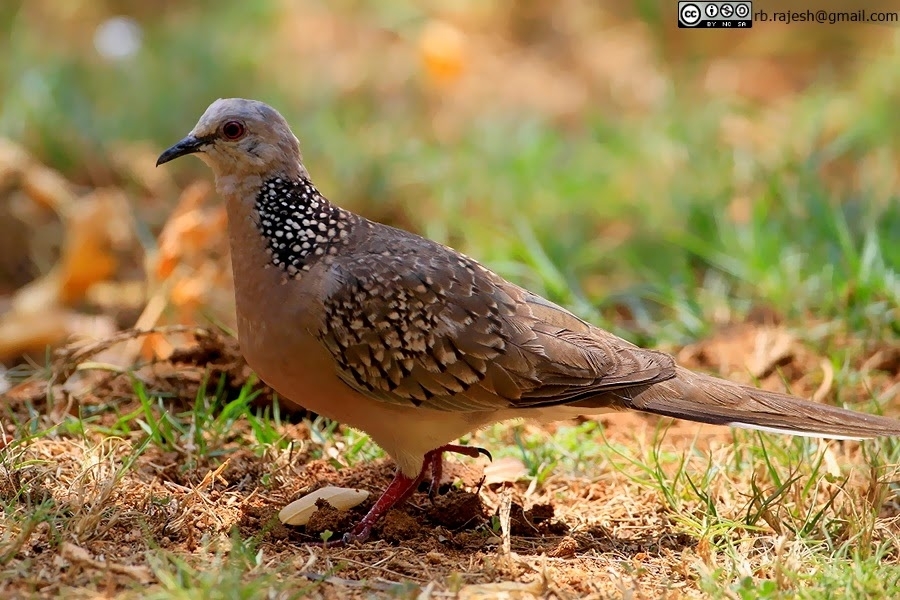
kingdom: Animalia
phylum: Chordata
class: Aves
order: Columbiformes
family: Columbidae
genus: Spilopelia
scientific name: Spilopelia chinensis
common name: Spotted dove
